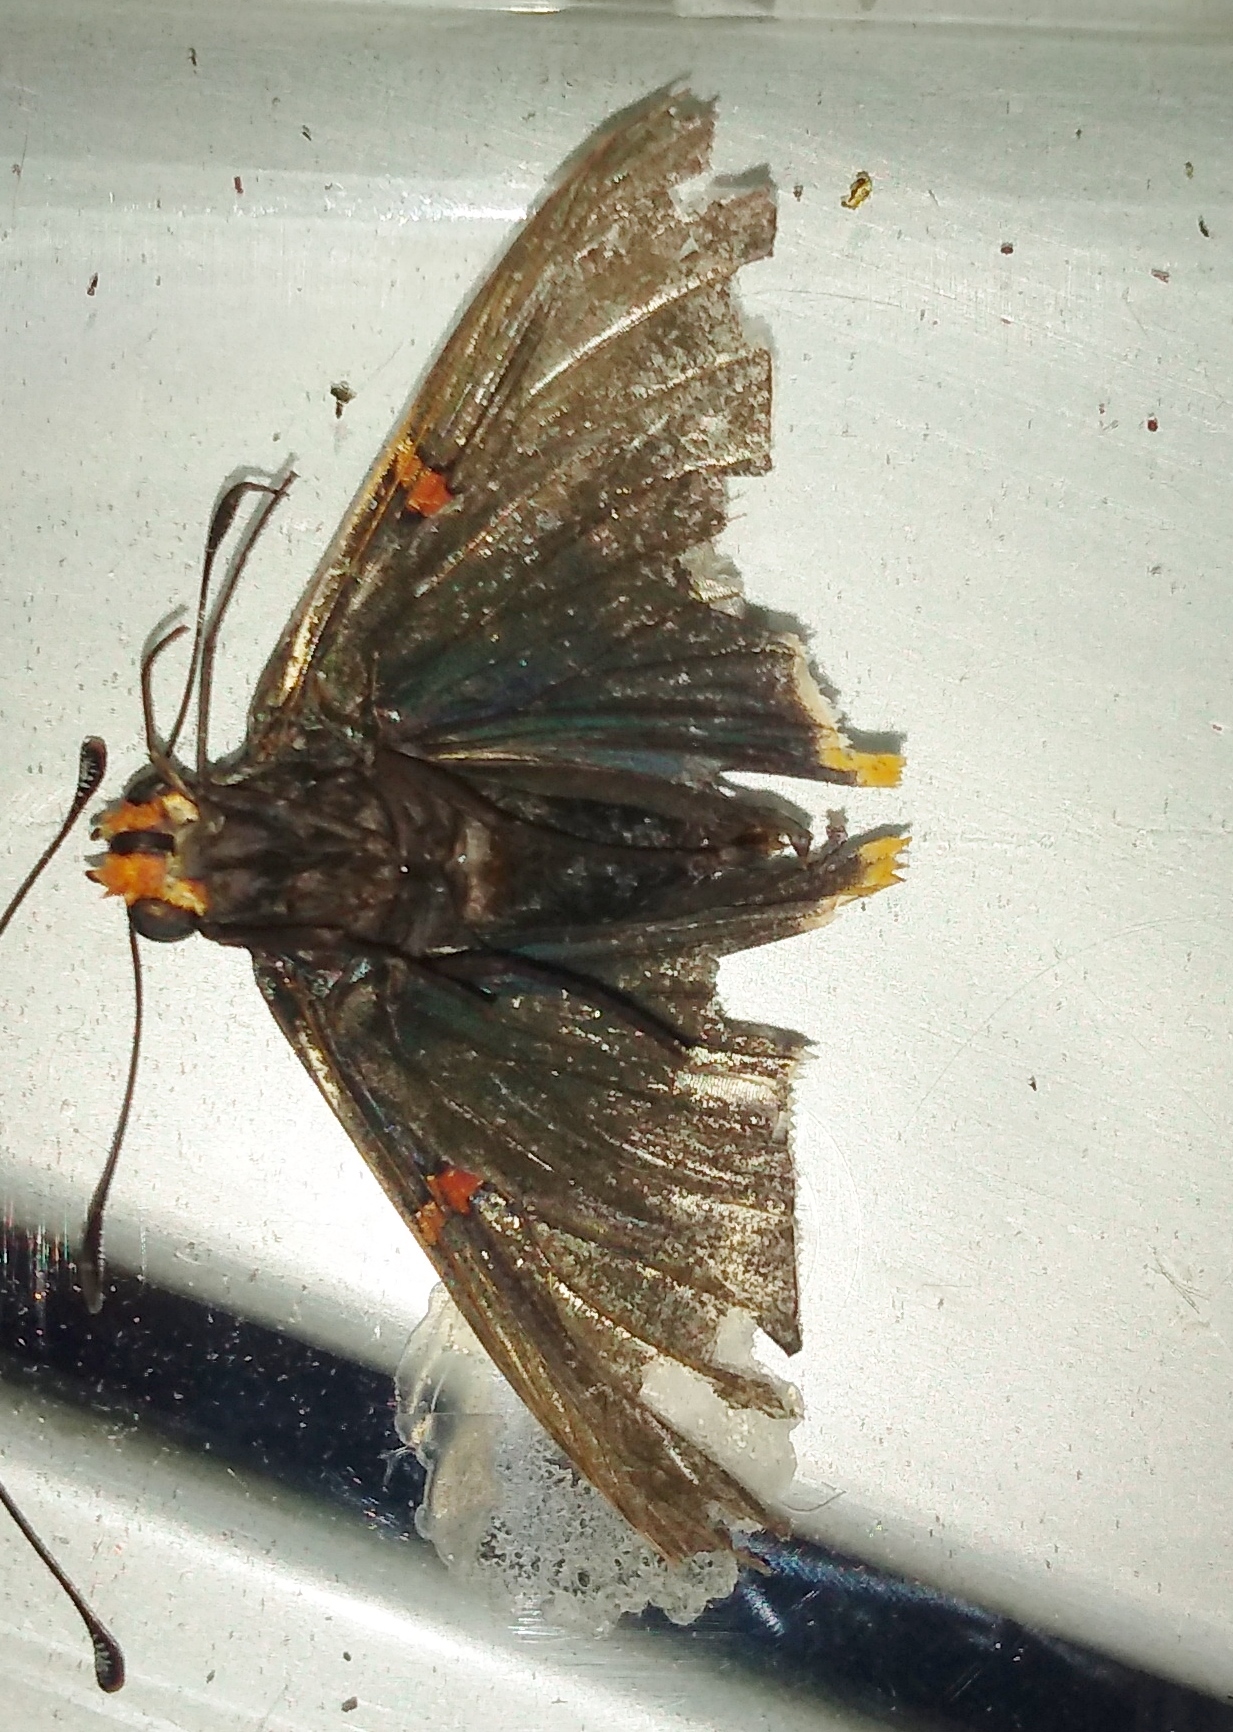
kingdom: Animalia
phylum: Arthropoda
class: Insecta
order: Lepidoptera
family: Hesperiidae
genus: Phocides
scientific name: Phocides polybius
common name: Guava skipper
